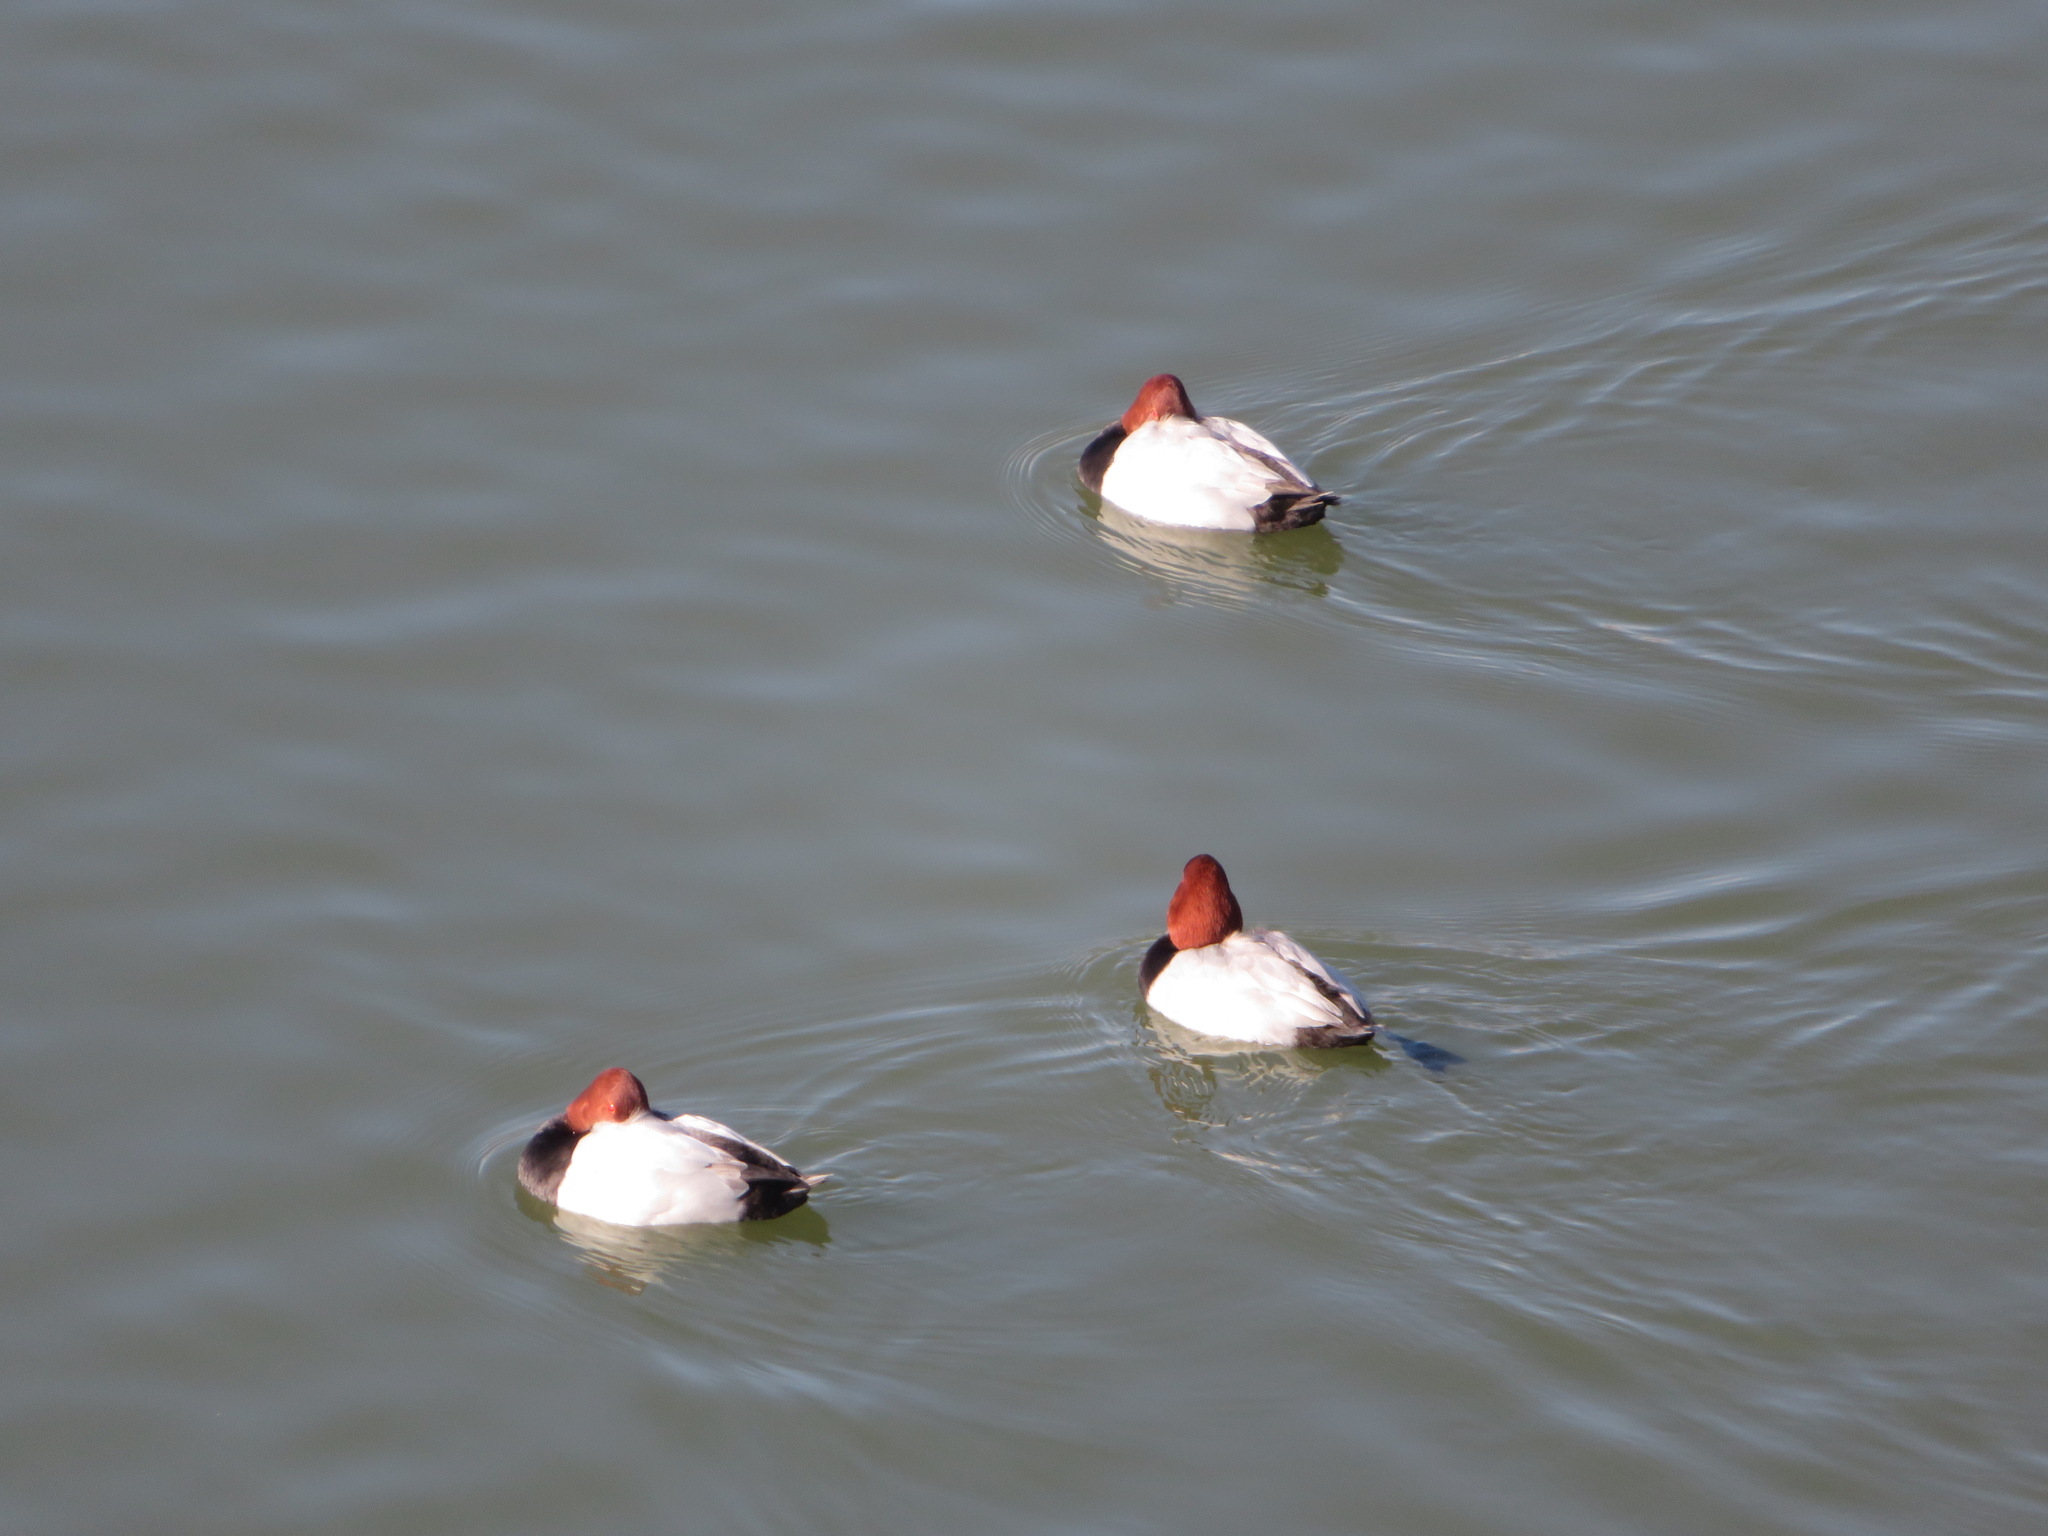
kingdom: Animalia
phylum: Chordata
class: Aves
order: Anseriformes
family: Anatidae
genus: Aythya
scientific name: Aythya ferina
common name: Common pochard
